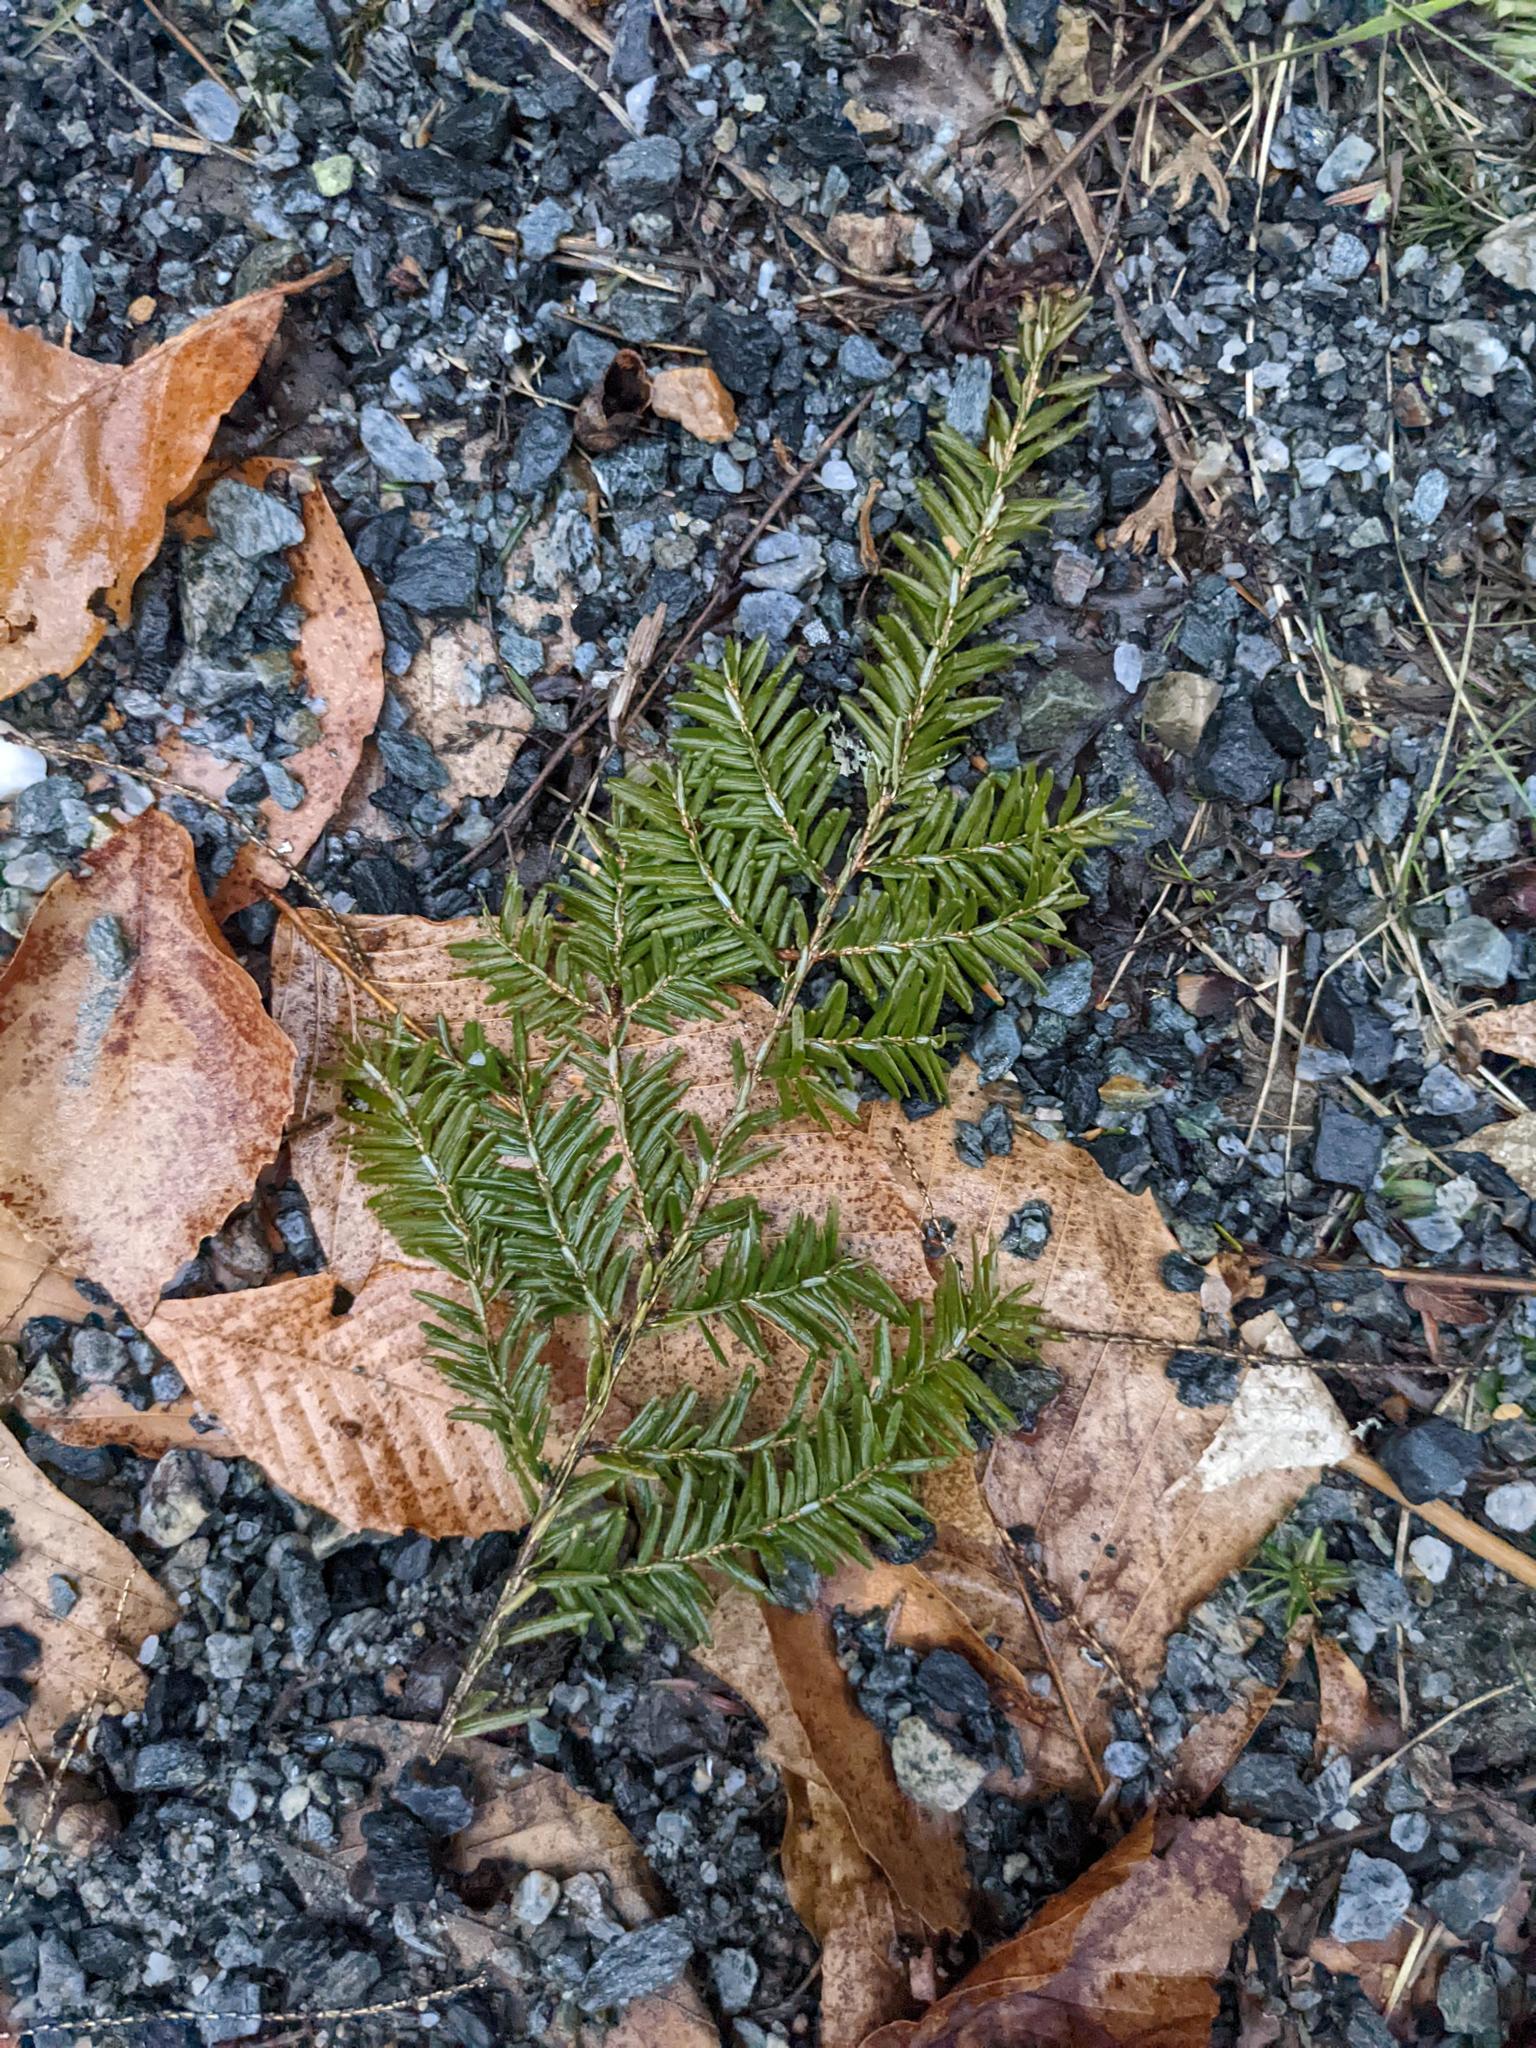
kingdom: Plantae
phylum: Tracheophyta
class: Pinopsida
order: Pinales
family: Pinaceae
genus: Tsuga
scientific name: Tsuga canadensis
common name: Eastern hemlock
